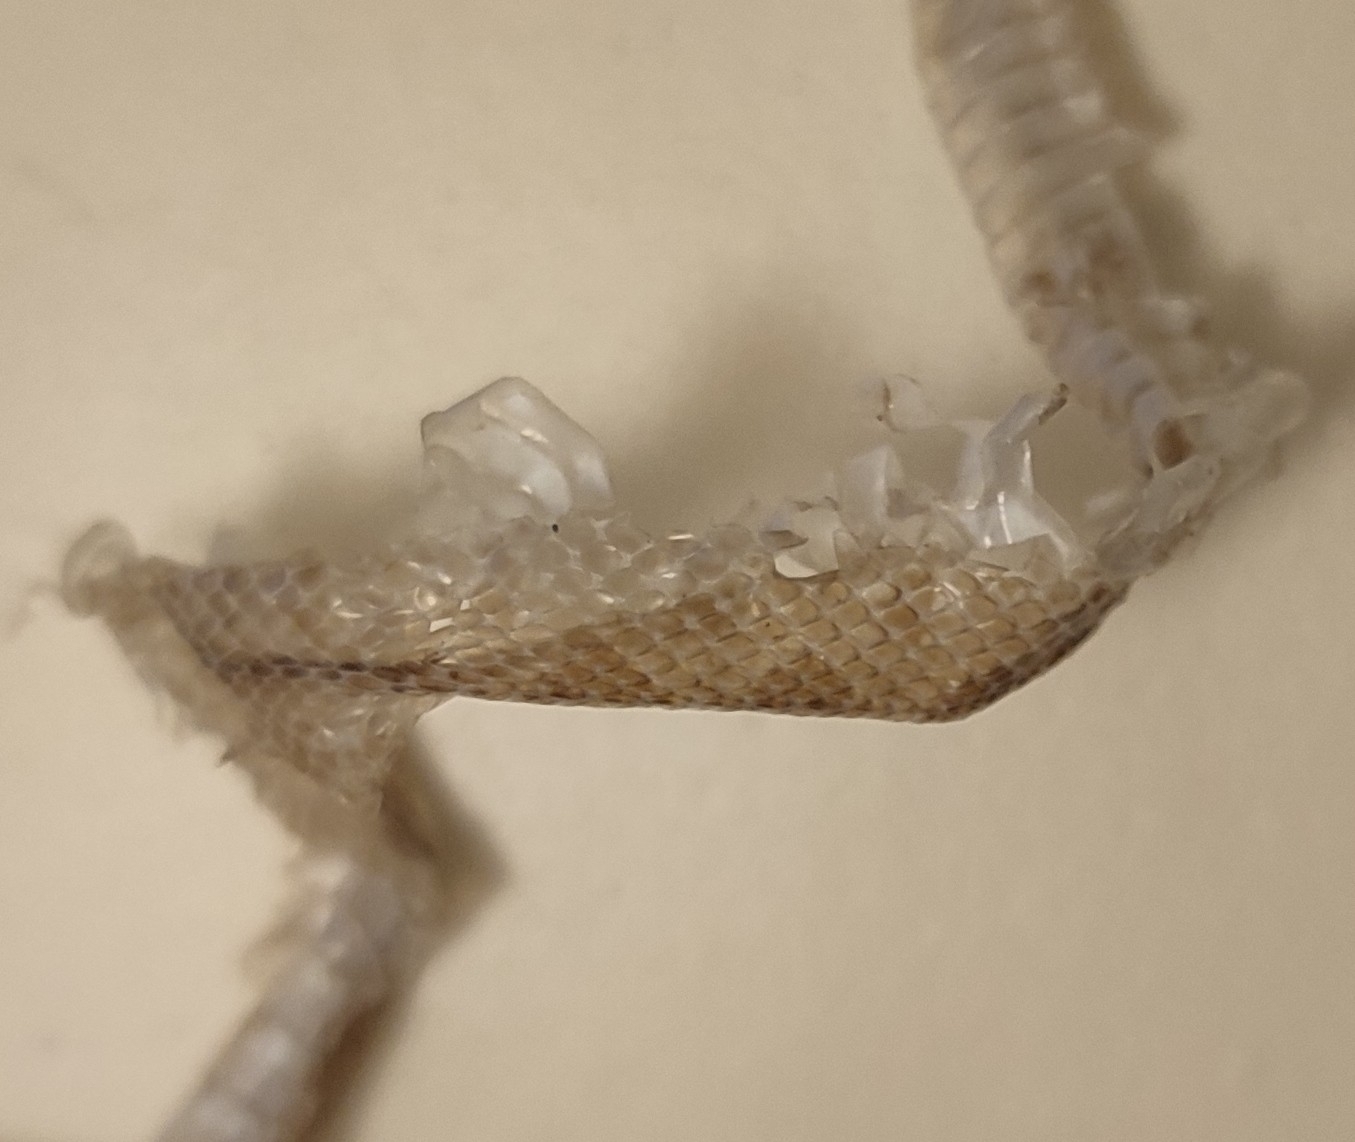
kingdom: Animalia
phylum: Chordata
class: Squamata
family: Colubridae
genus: Hemorrhois
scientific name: Hemorrhois hippocrepis
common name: Horseshoe whip snake
